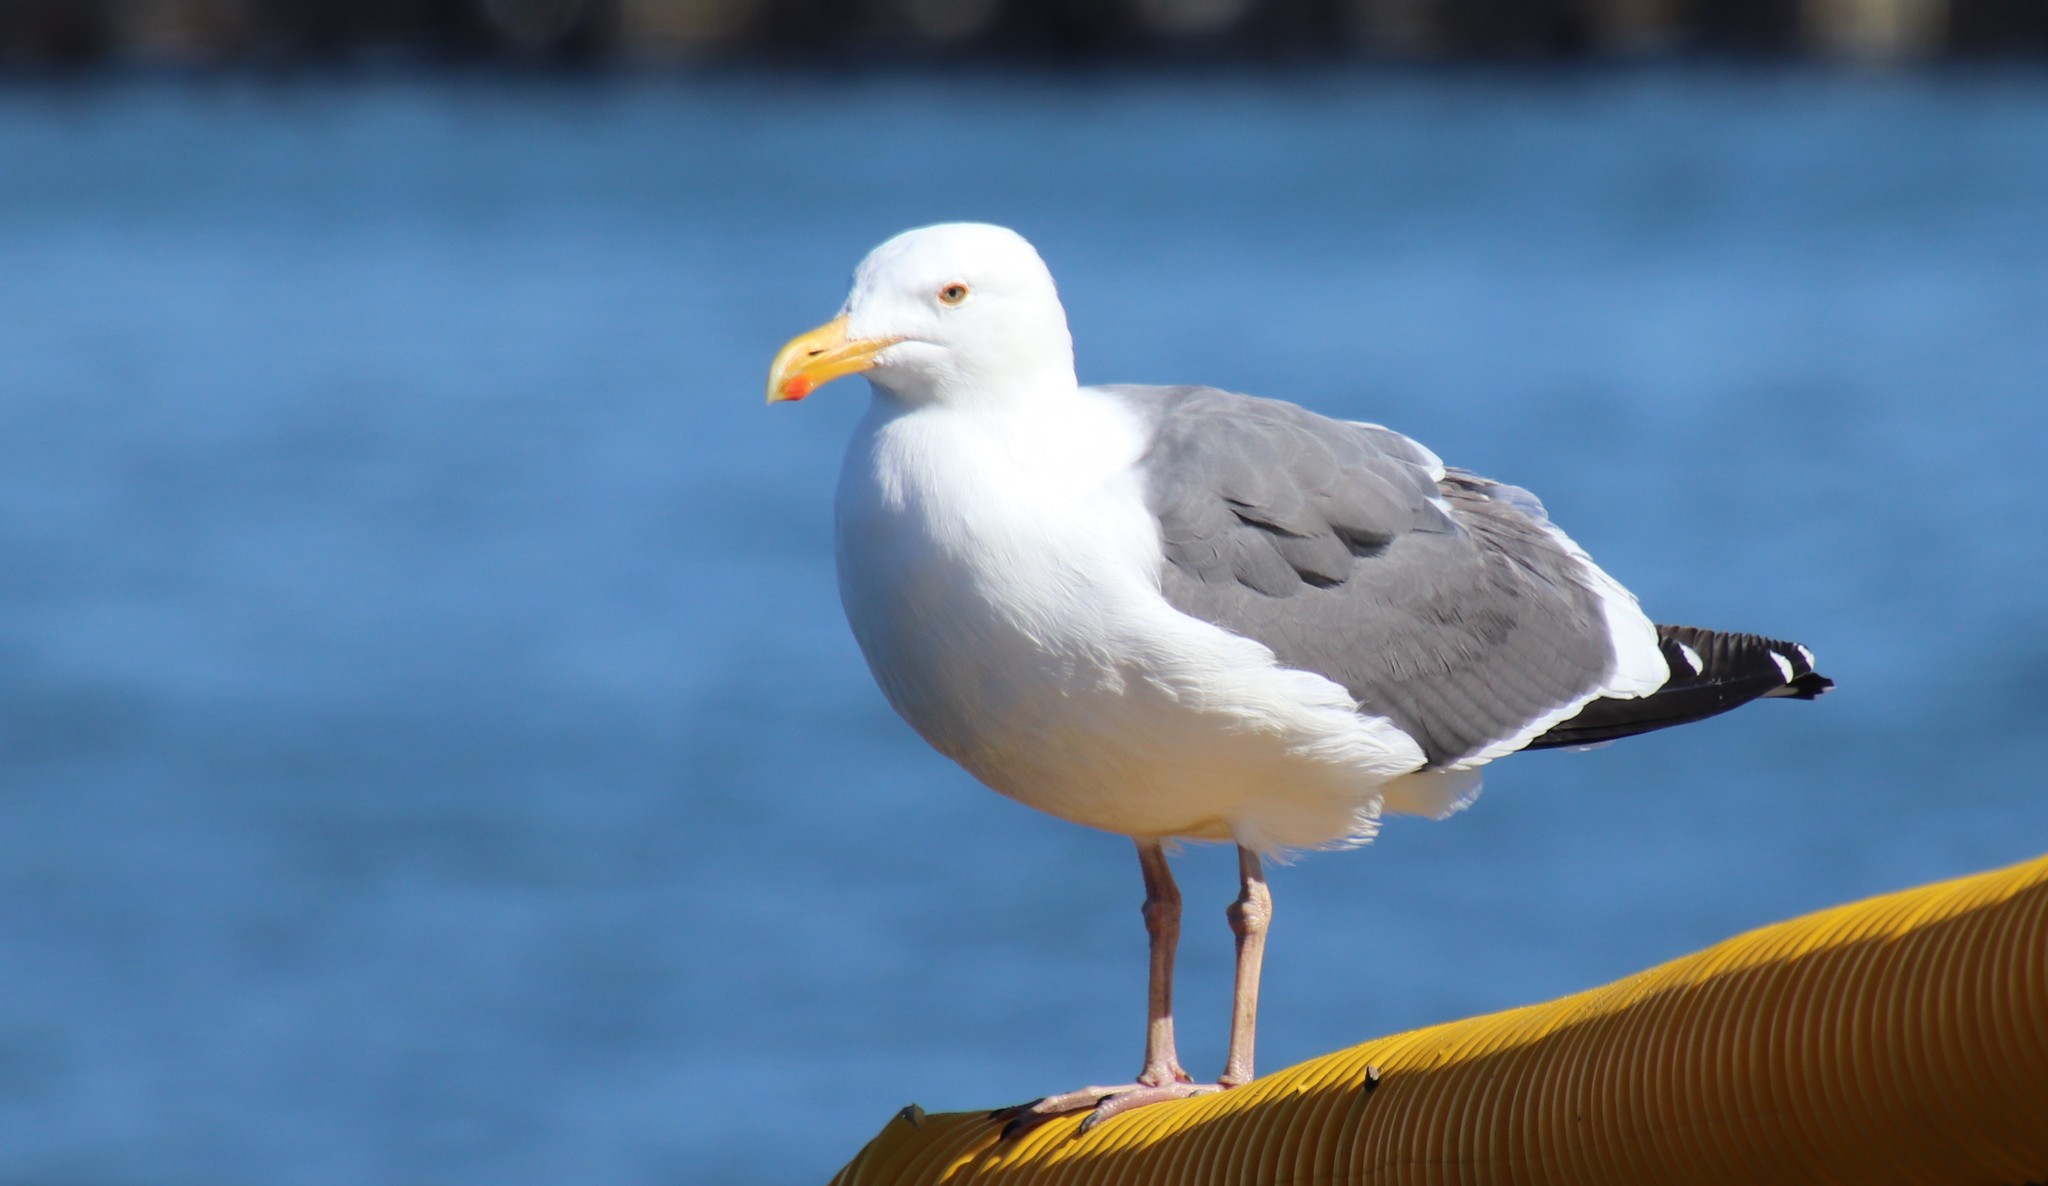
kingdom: Animalia
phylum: Chordata
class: Aves
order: Charadriiformes
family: Laridae
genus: Larus
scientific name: Larus occidentalis
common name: Western gull
